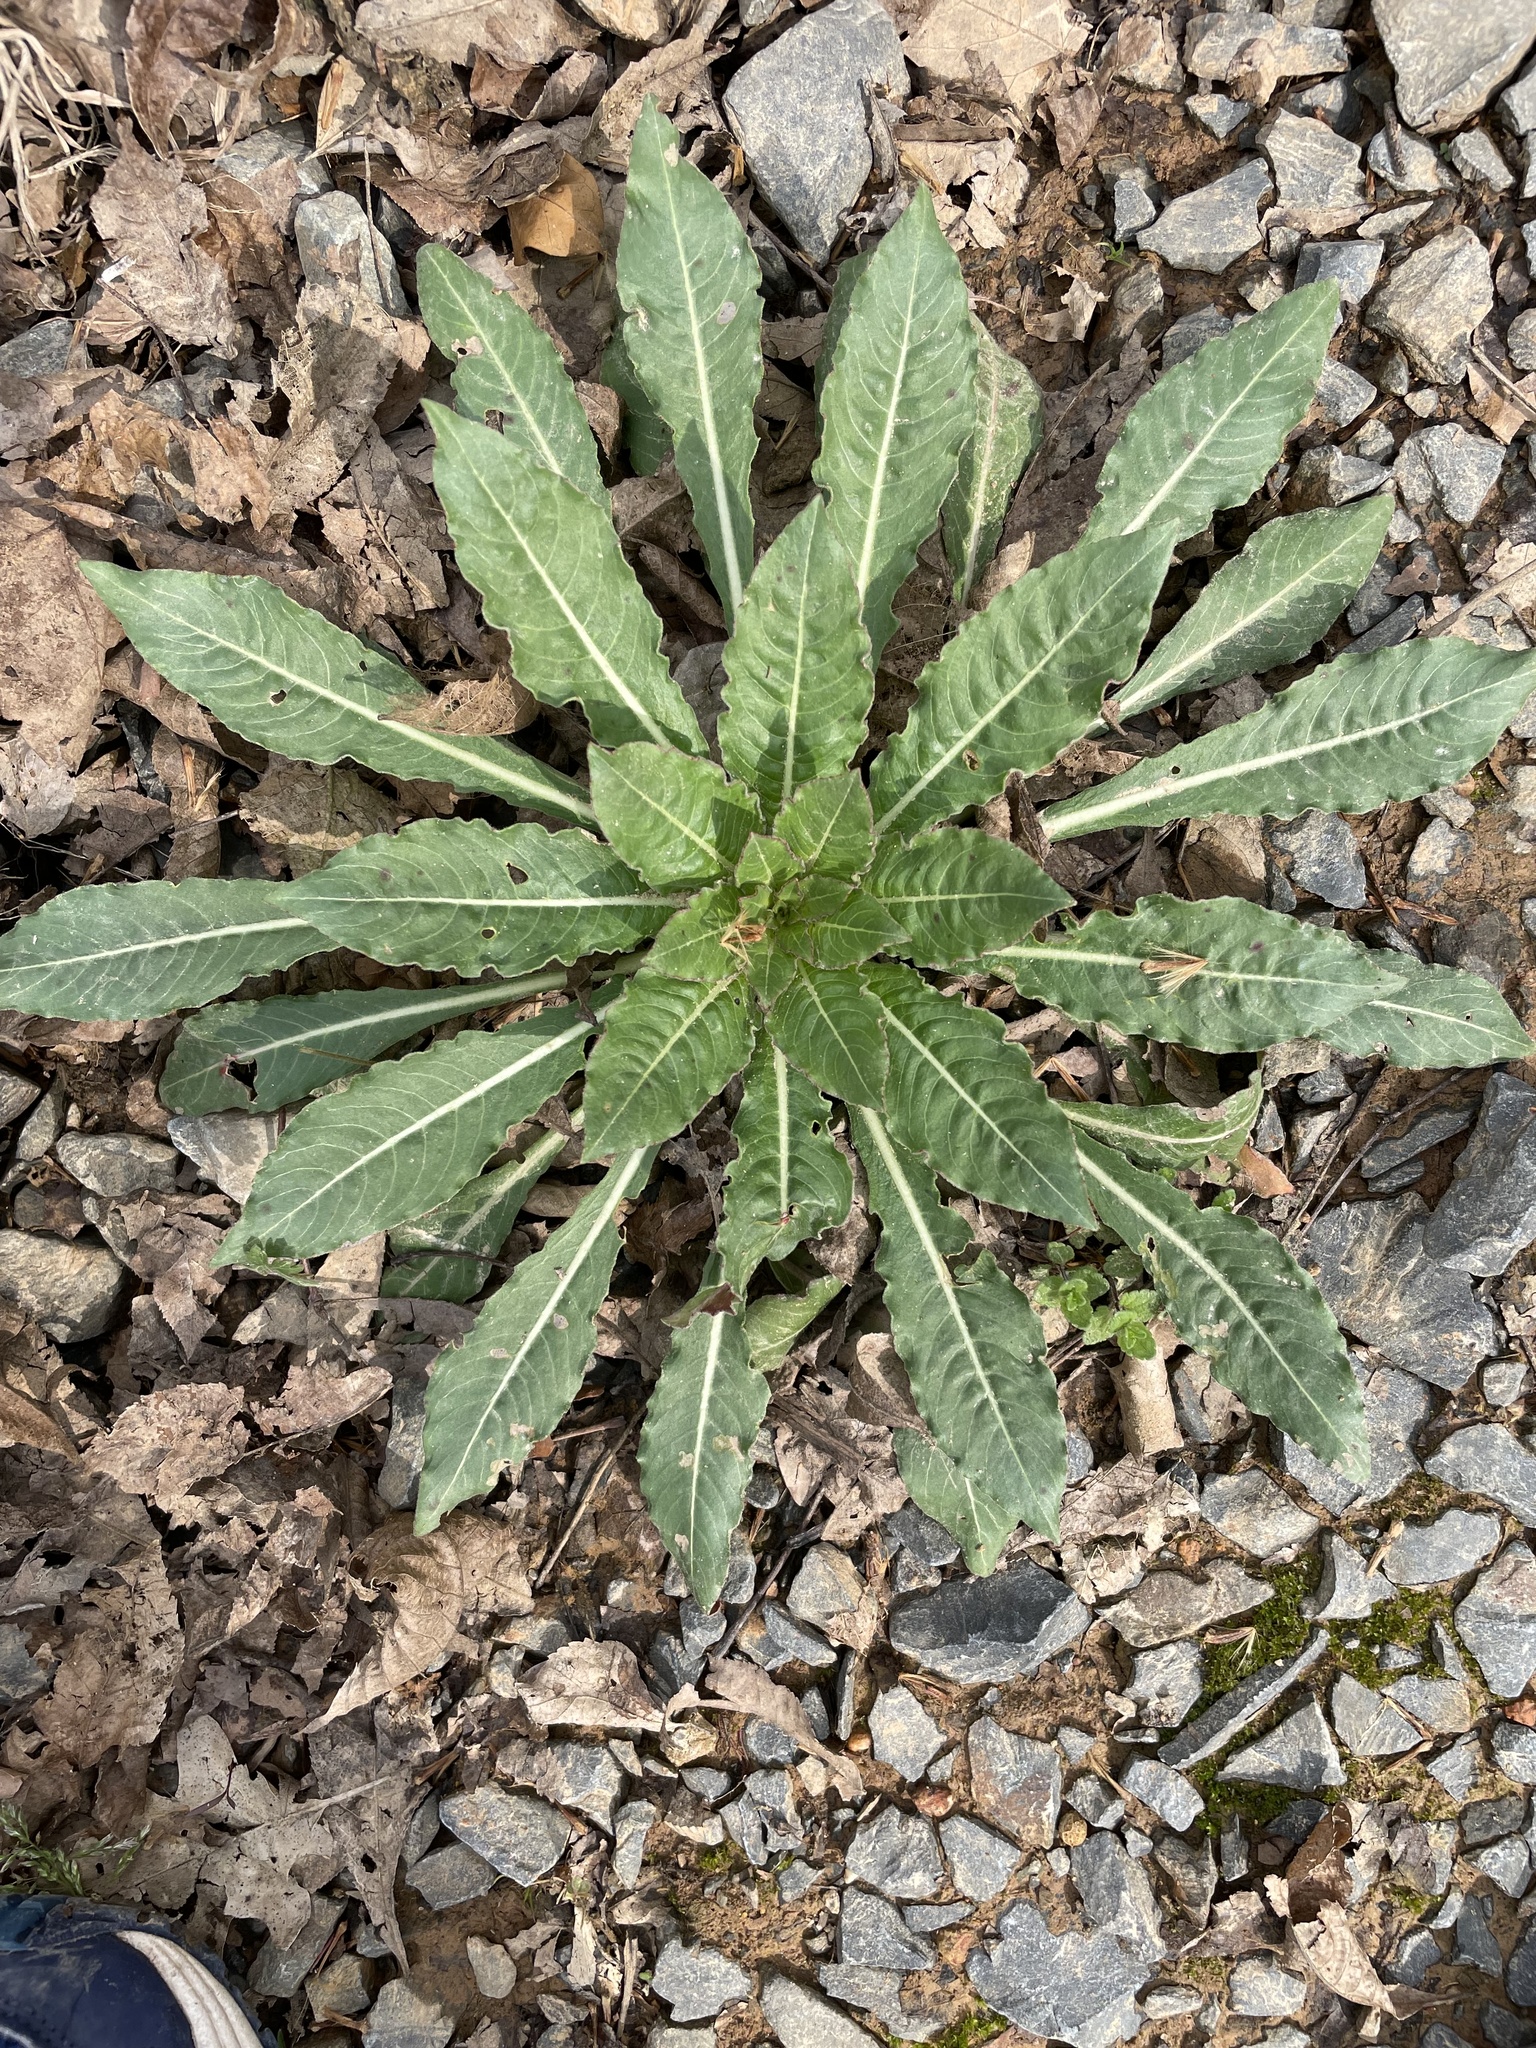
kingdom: Plantae
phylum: Tracheophyta
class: Magnoliopsida
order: Myrtales
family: Onagraceae
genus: Oenothera
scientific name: Oenothera biennis
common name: Common evening-primrose
